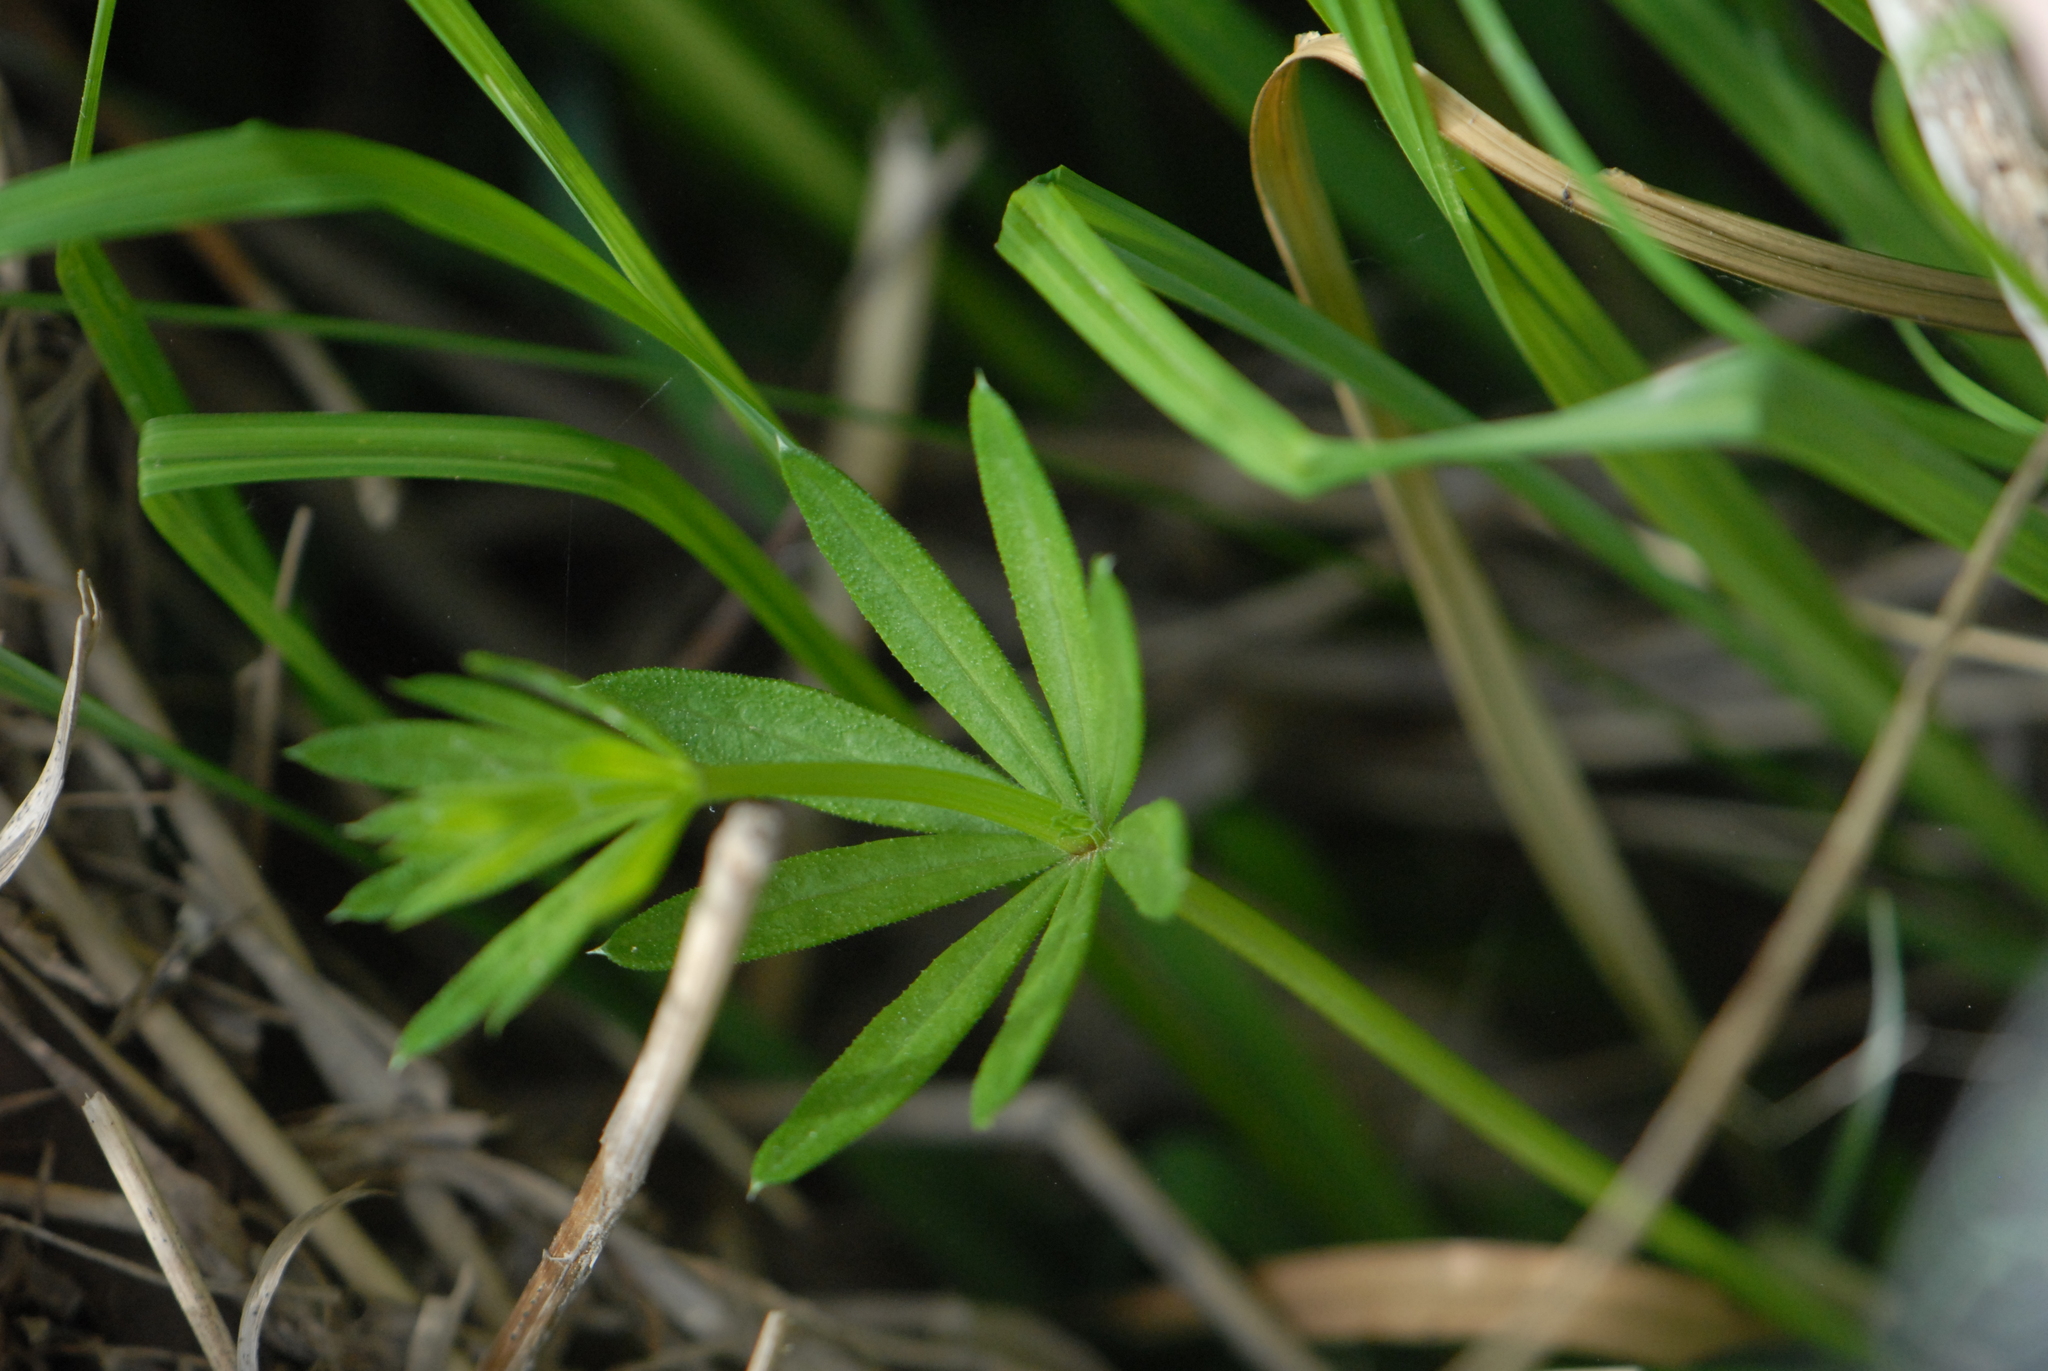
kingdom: Plantae
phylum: Tracheophyta
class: Magnoliopsida
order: Gentianales
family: Rubiaceae
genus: Galium
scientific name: Galium mollugo
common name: Hedge bedstraw
